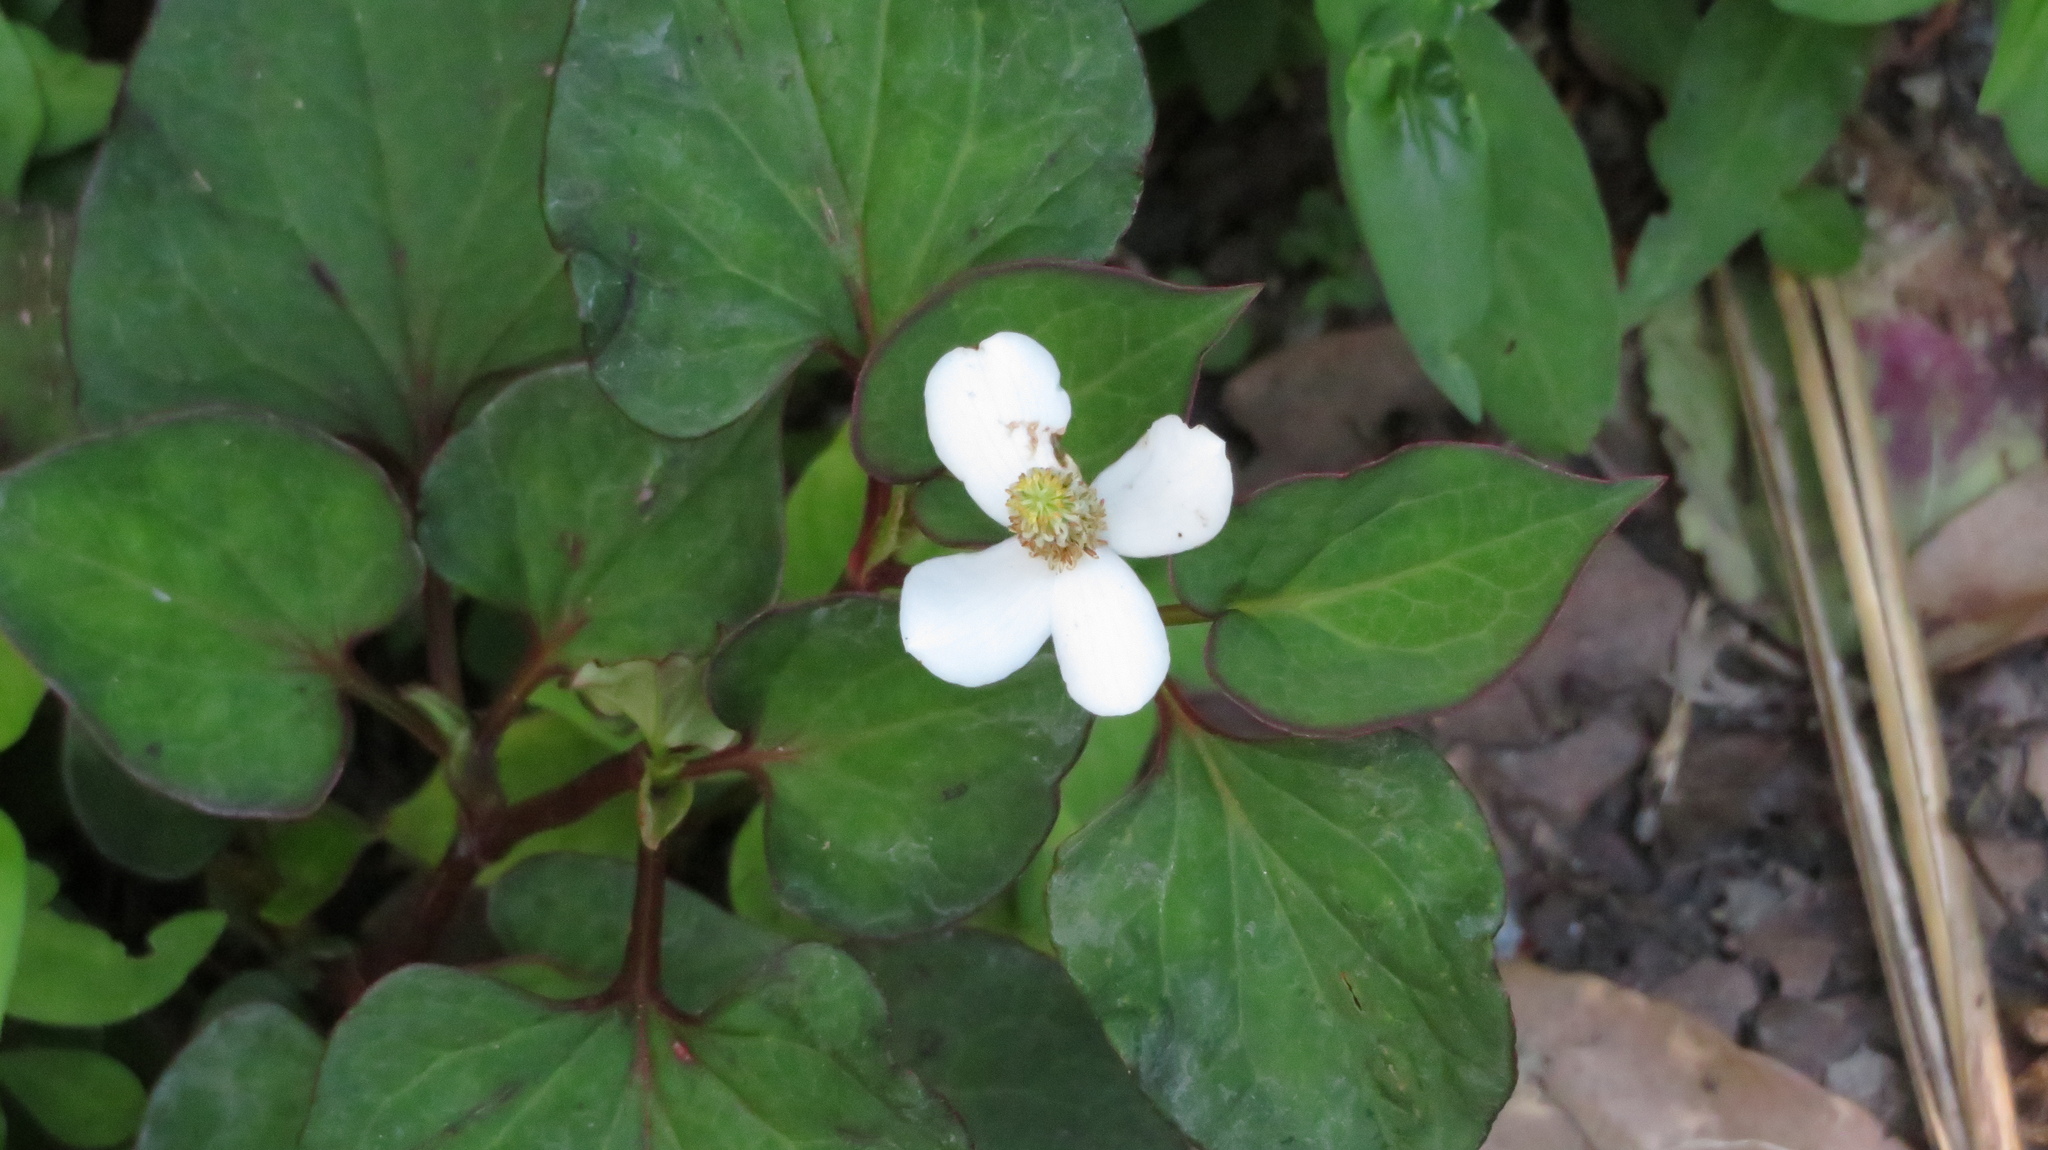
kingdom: Plantae
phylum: Tracheophyta
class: Magnoliopsida
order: Piperales
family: Saururaceae
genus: Houttuynia
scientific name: Houttuynia cordata
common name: Chameleon
